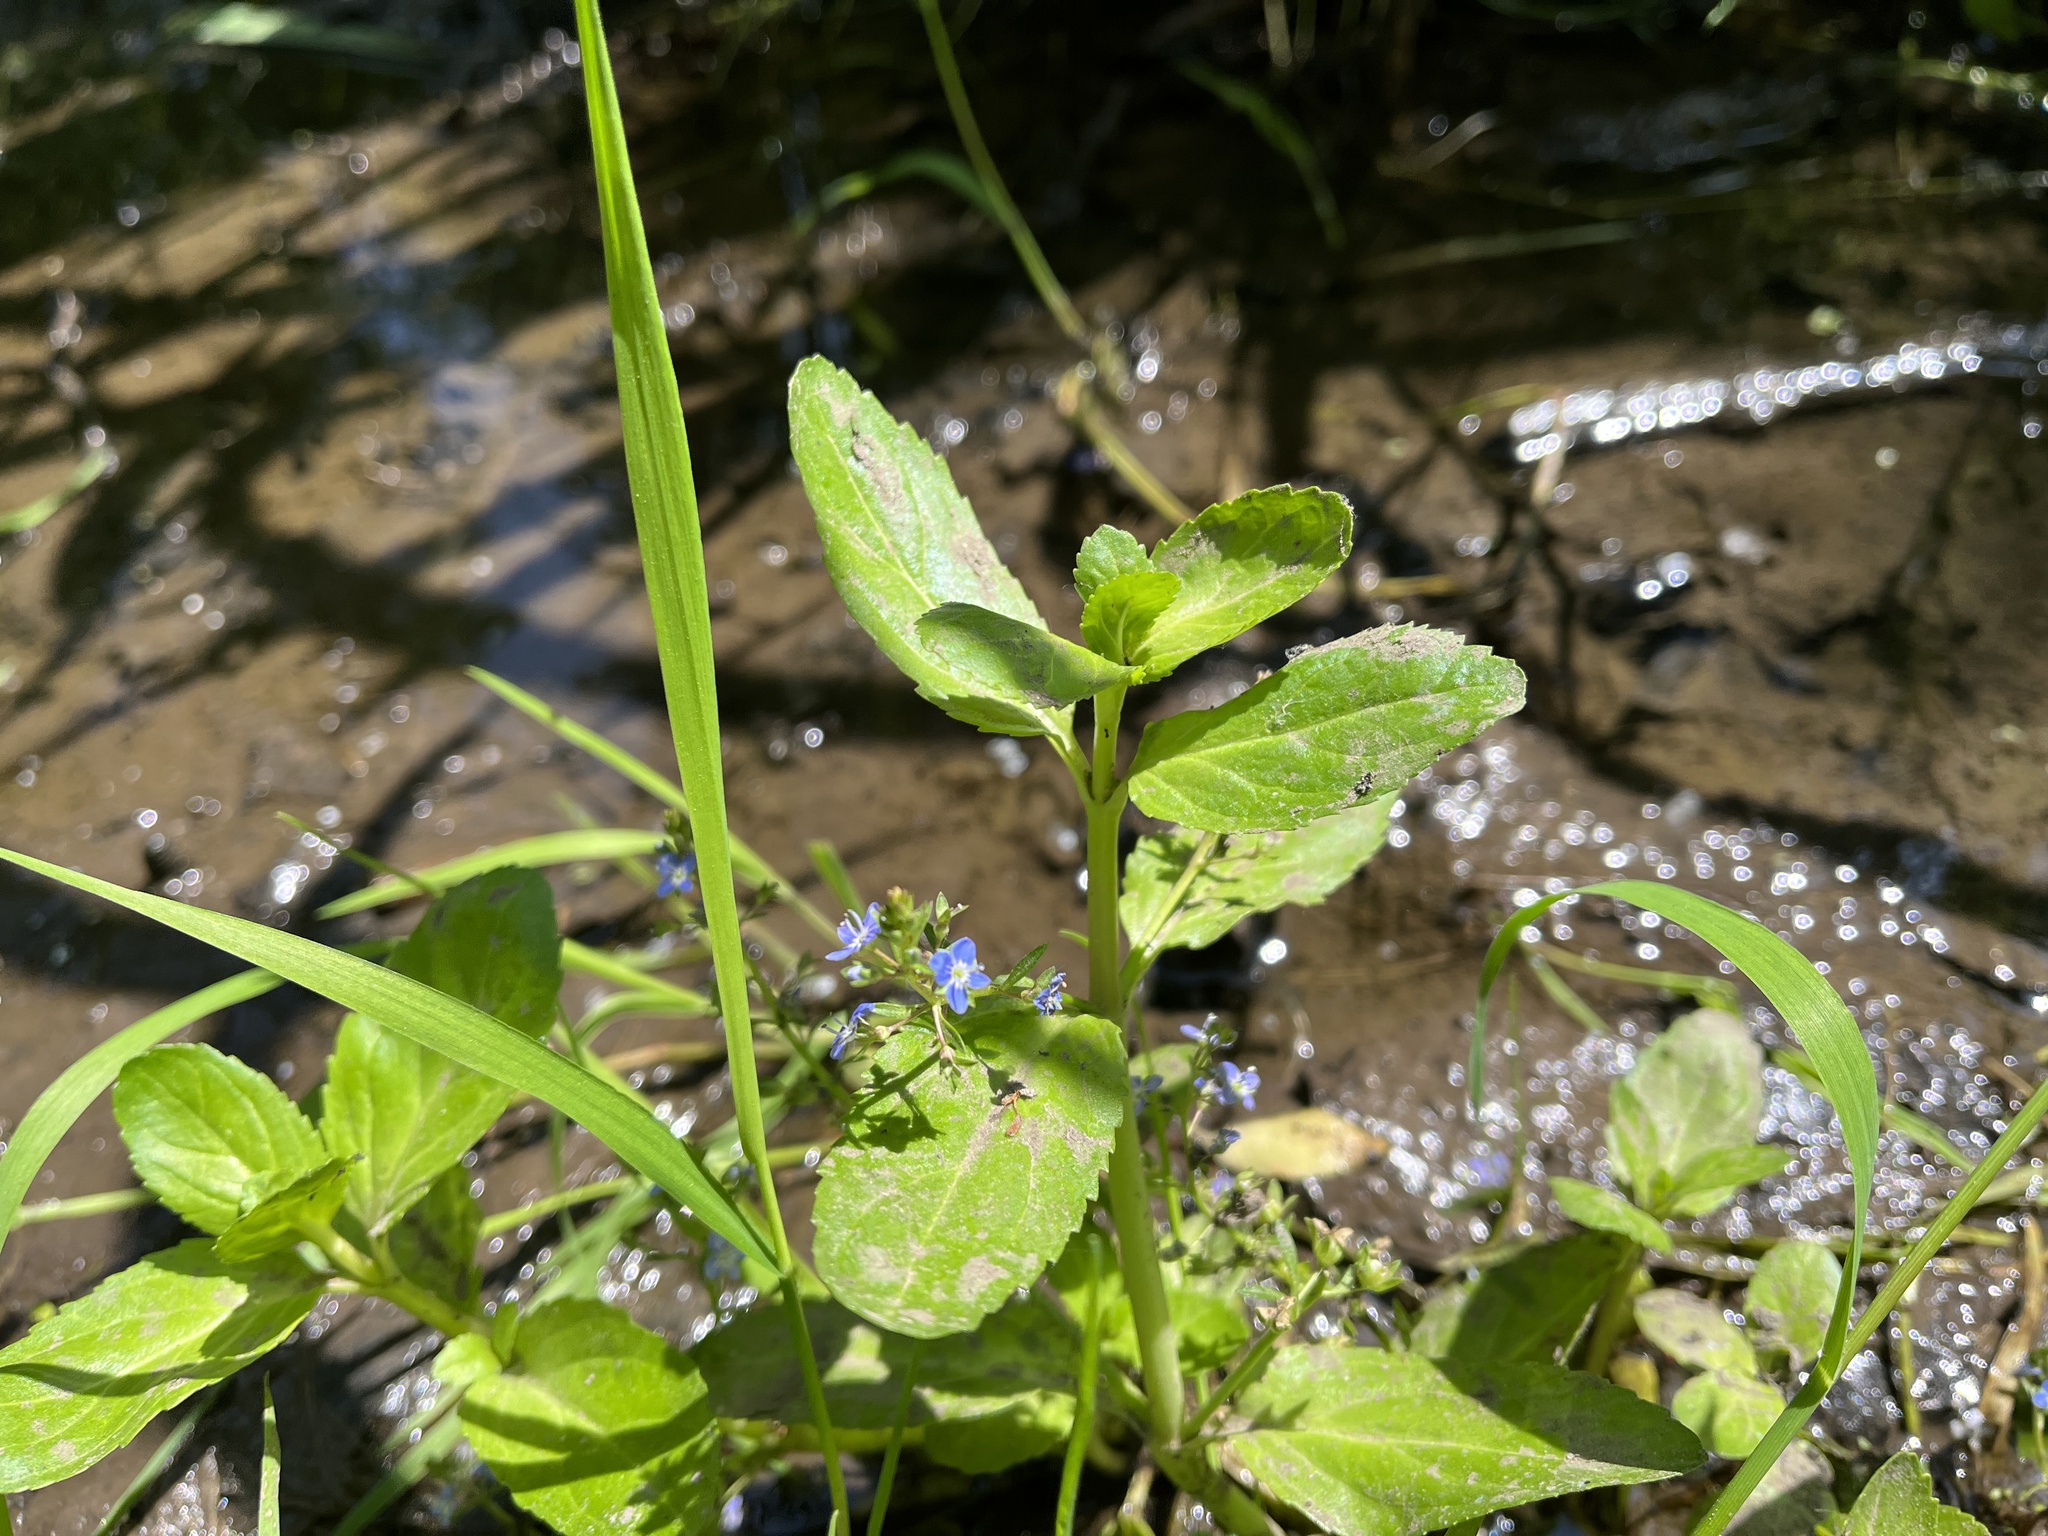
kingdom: Plantae
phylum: Tracheophyta
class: Magnoliopsida
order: Lamiales
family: Plantaginaceae
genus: Veronica
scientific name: Veronica beccabunga
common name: Brooklime
